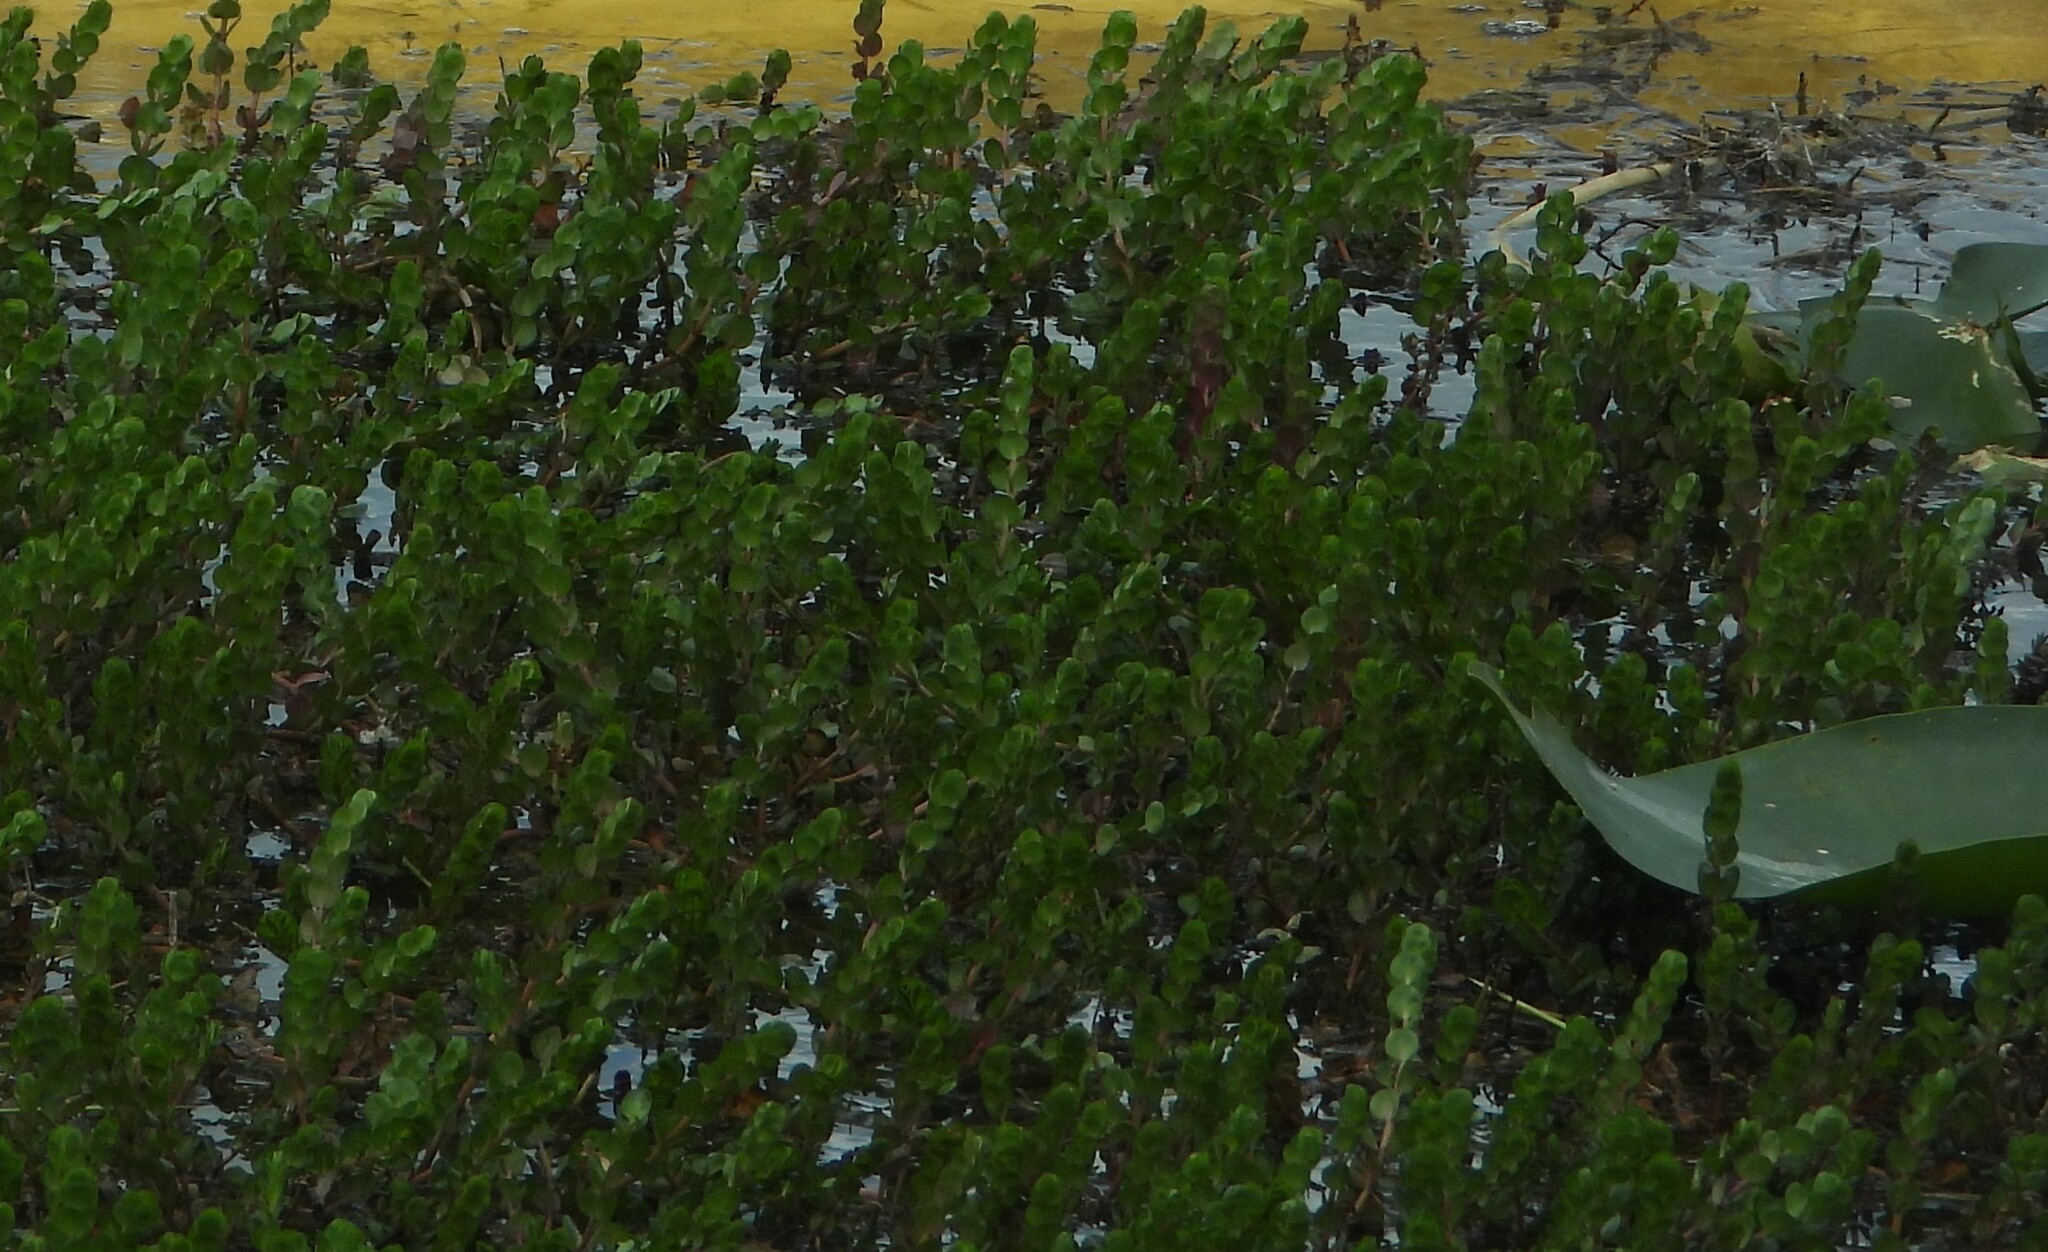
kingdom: Plantae
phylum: Tracheophyta
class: Magnoliopsida
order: Myrtales
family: Lythraceae
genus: Rotala
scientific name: Rotala rotundifolia
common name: Roundleaf toothcup
